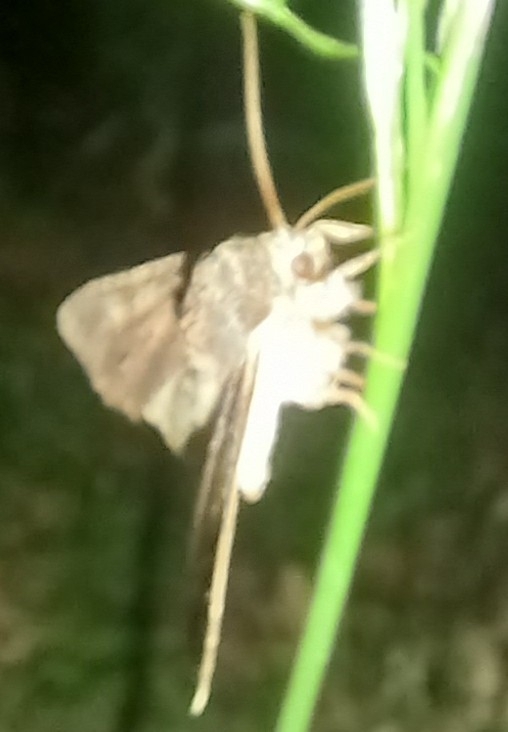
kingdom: Animalia
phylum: Arthropoda
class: Insecta
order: Lepidoptera
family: Noctuidae
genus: Apamea
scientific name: Apamea crenata
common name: Clouded-bordered brindle
